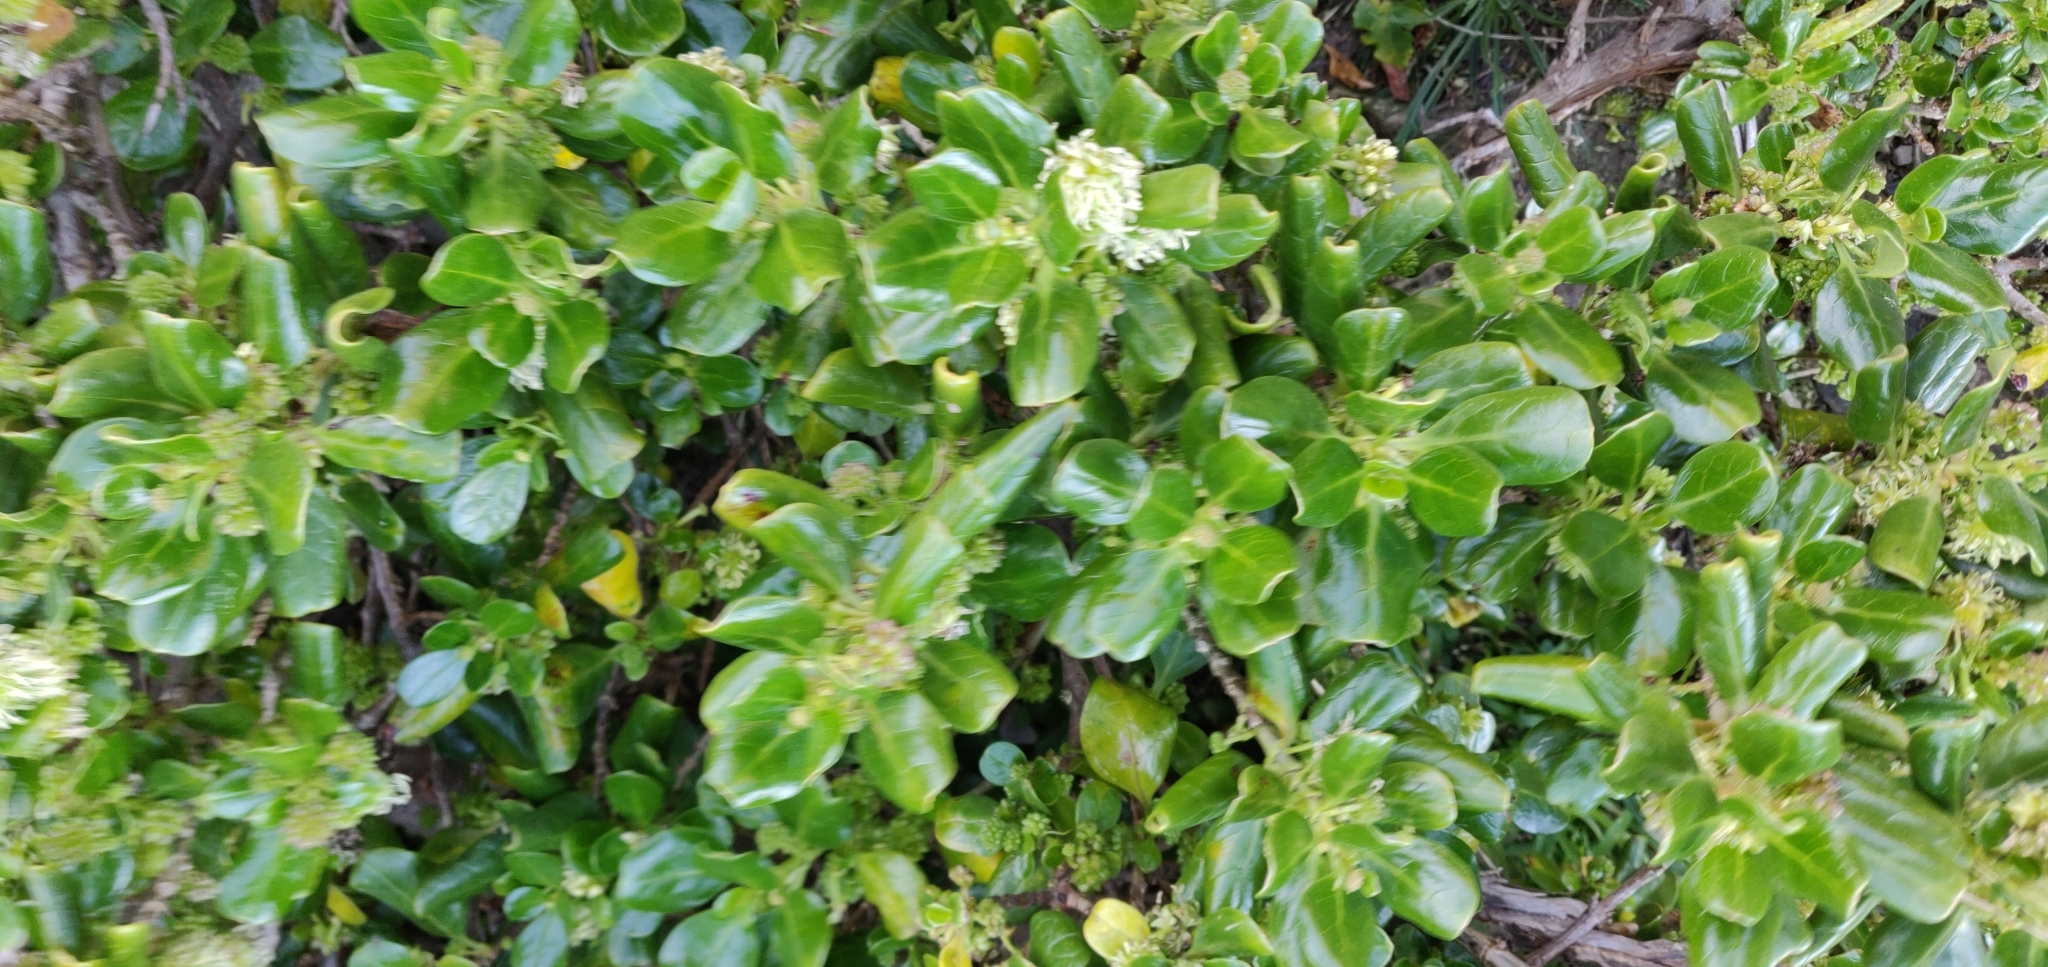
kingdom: Plantae
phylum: Tracheophyta
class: Magnoliopsida
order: Gentianales
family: Rubiaceae
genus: Coprosma
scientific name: Coprosma repens
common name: Tree bedstraw
